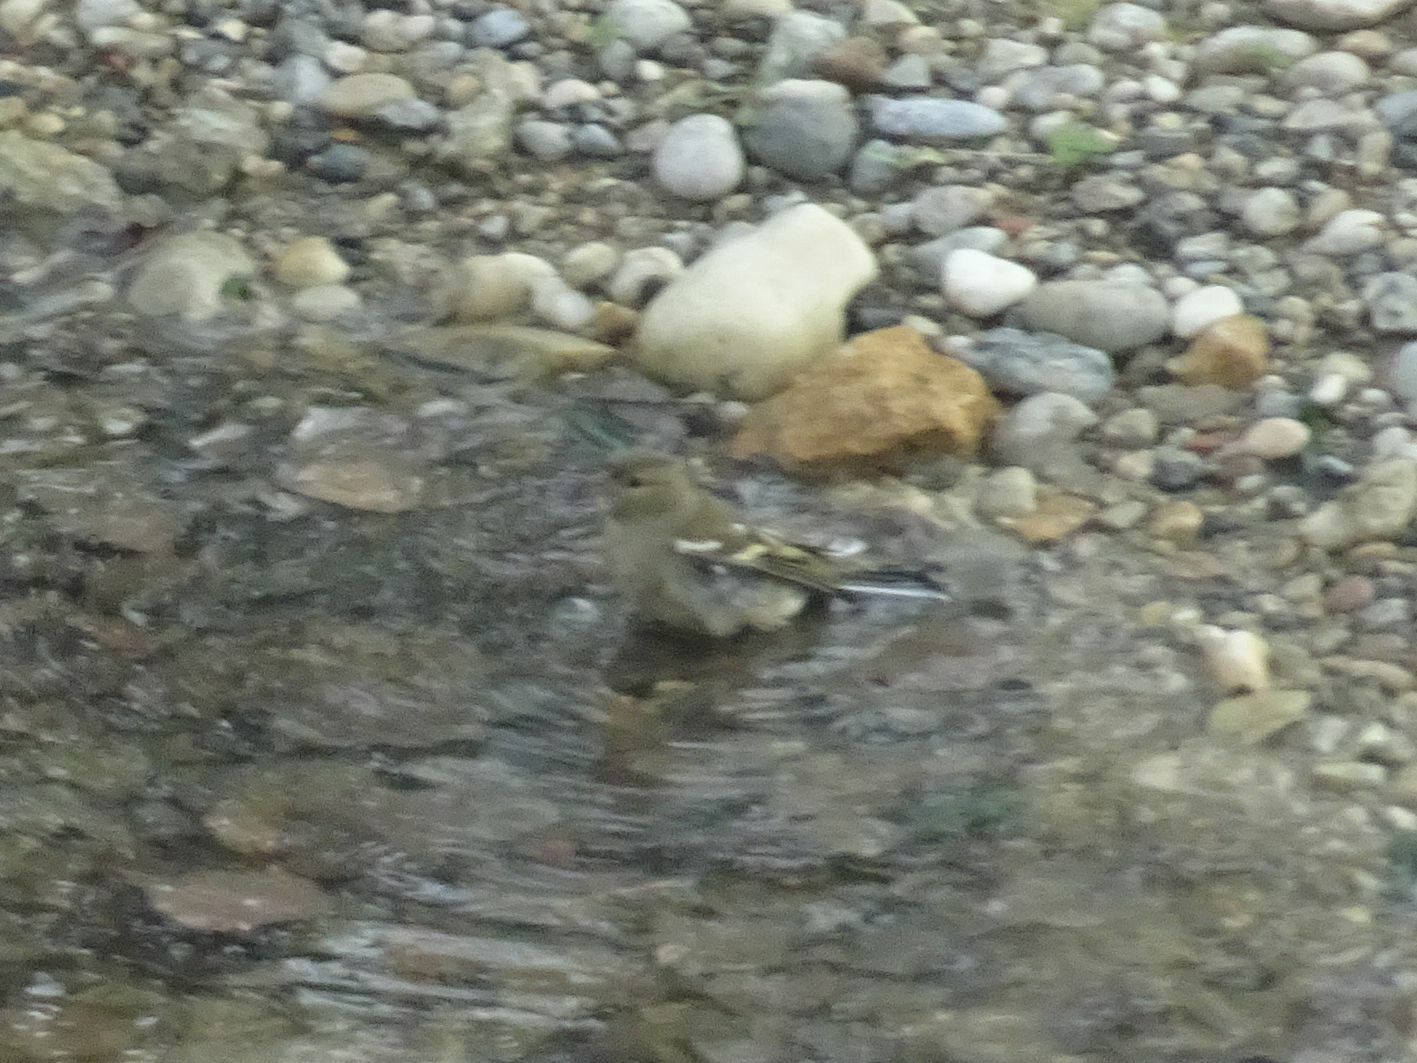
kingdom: Animalia
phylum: Chordata
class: Aves
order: Passeriformes
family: Fringillidae
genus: Fringilla
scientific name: Fringilla coelebs
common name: Common chaffinch
